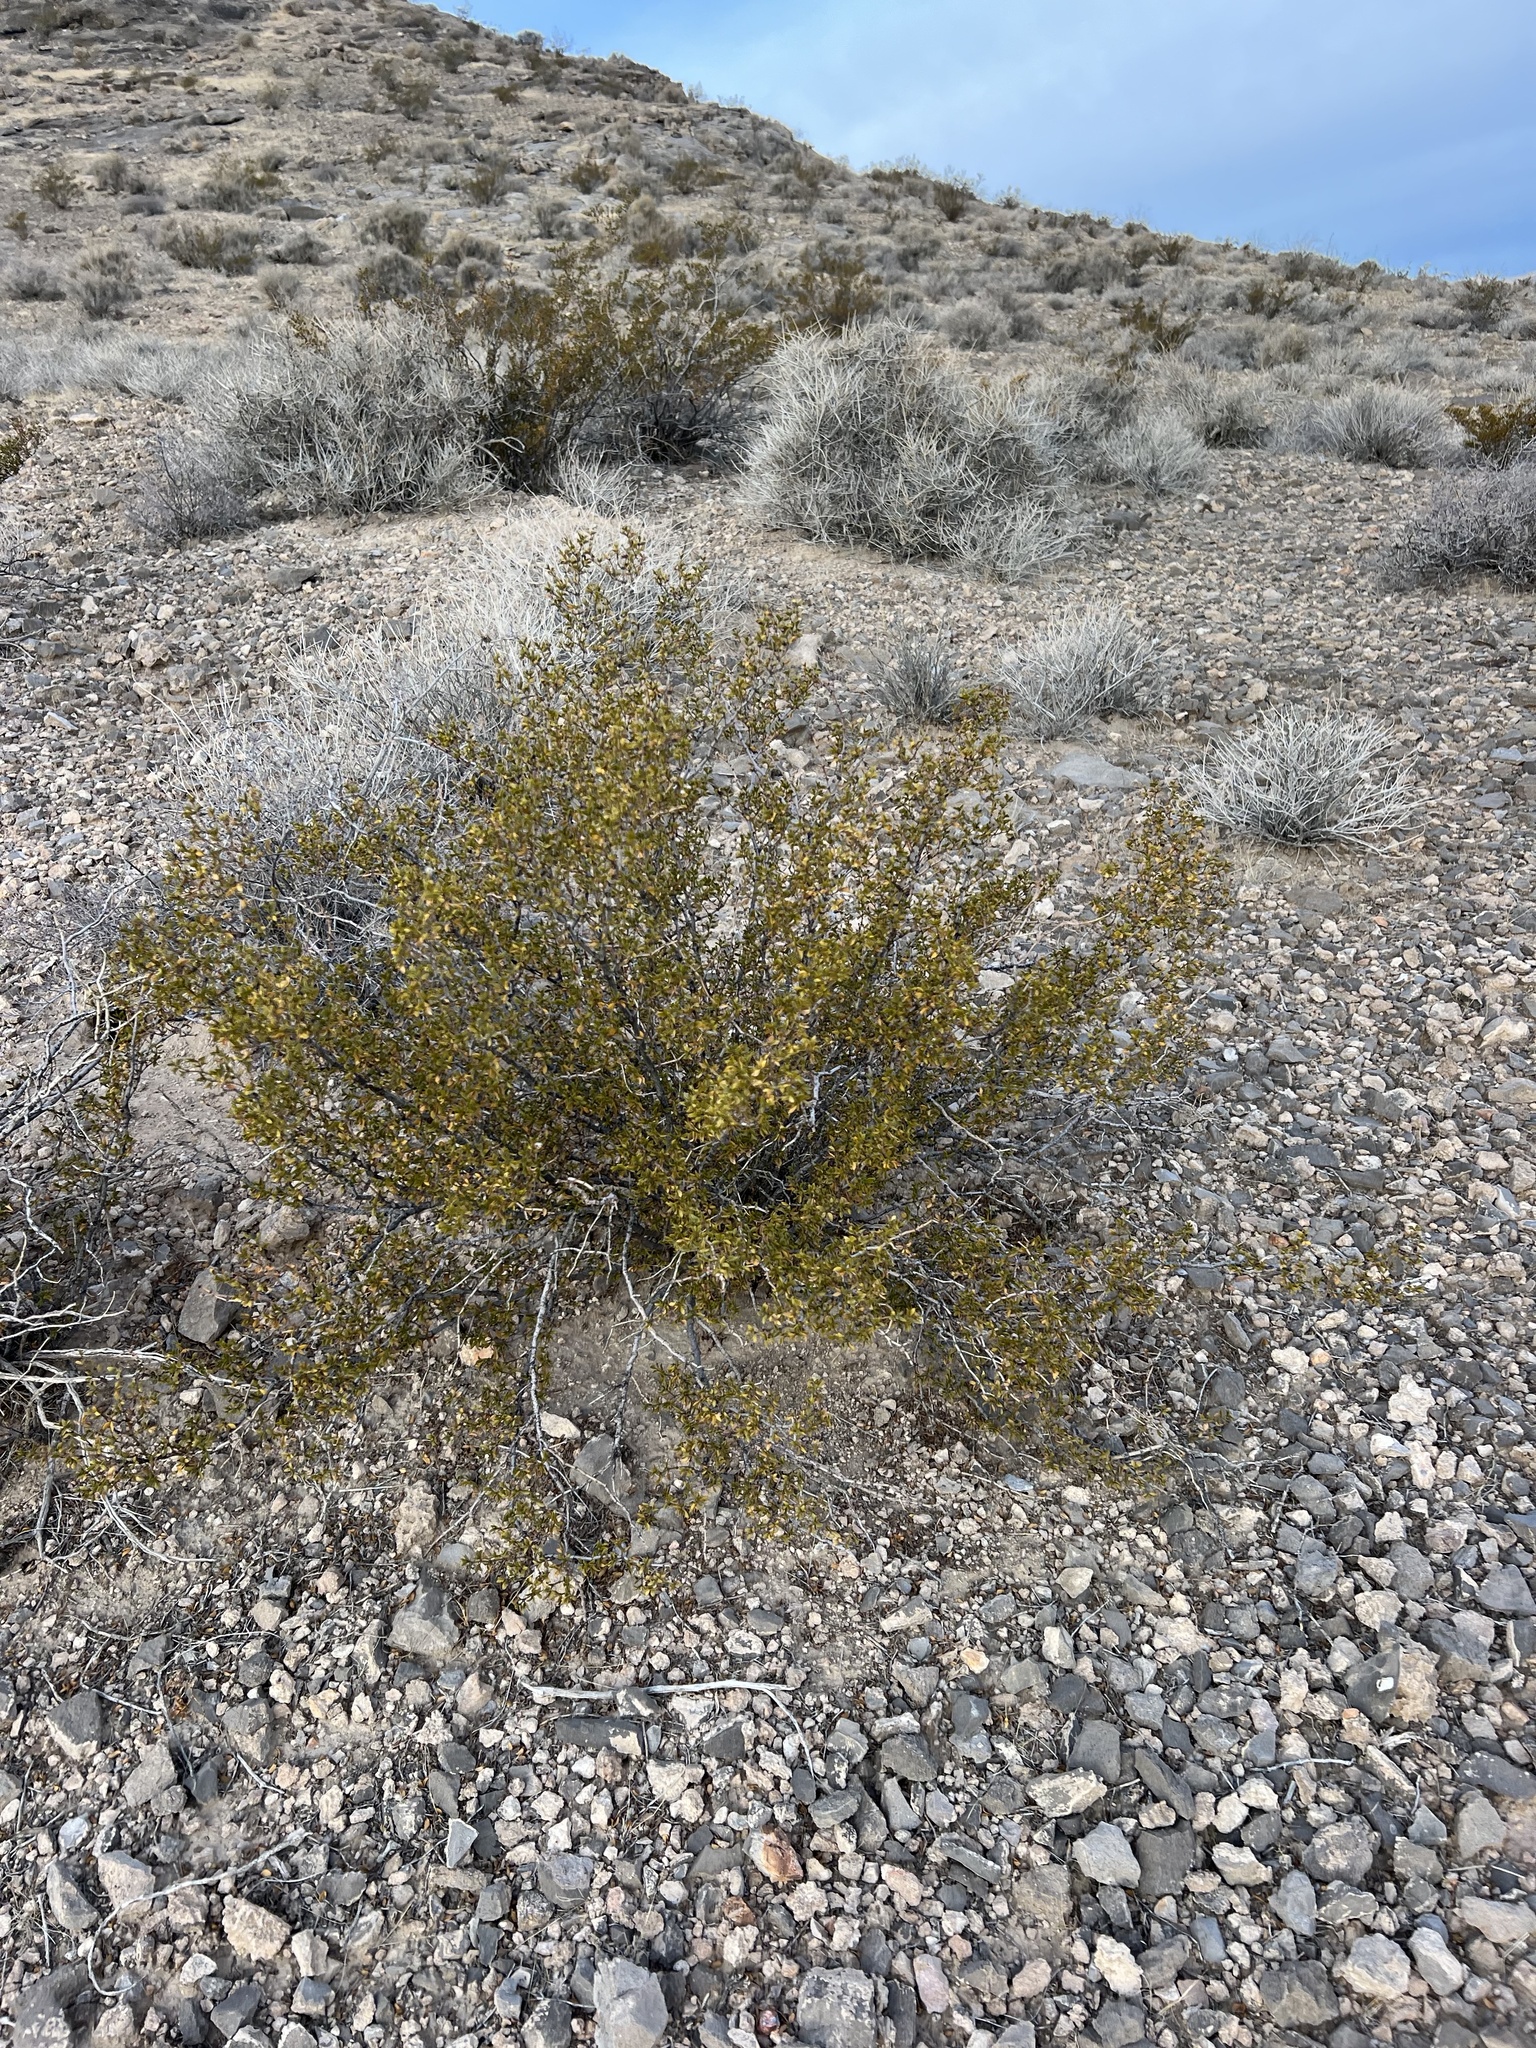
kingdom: Plantae
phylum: Tracheophyta
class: Magnoliopsida
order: Zygophyllales
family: Zygophyllaceae
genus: Larrea
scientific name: Larrea tridentata
